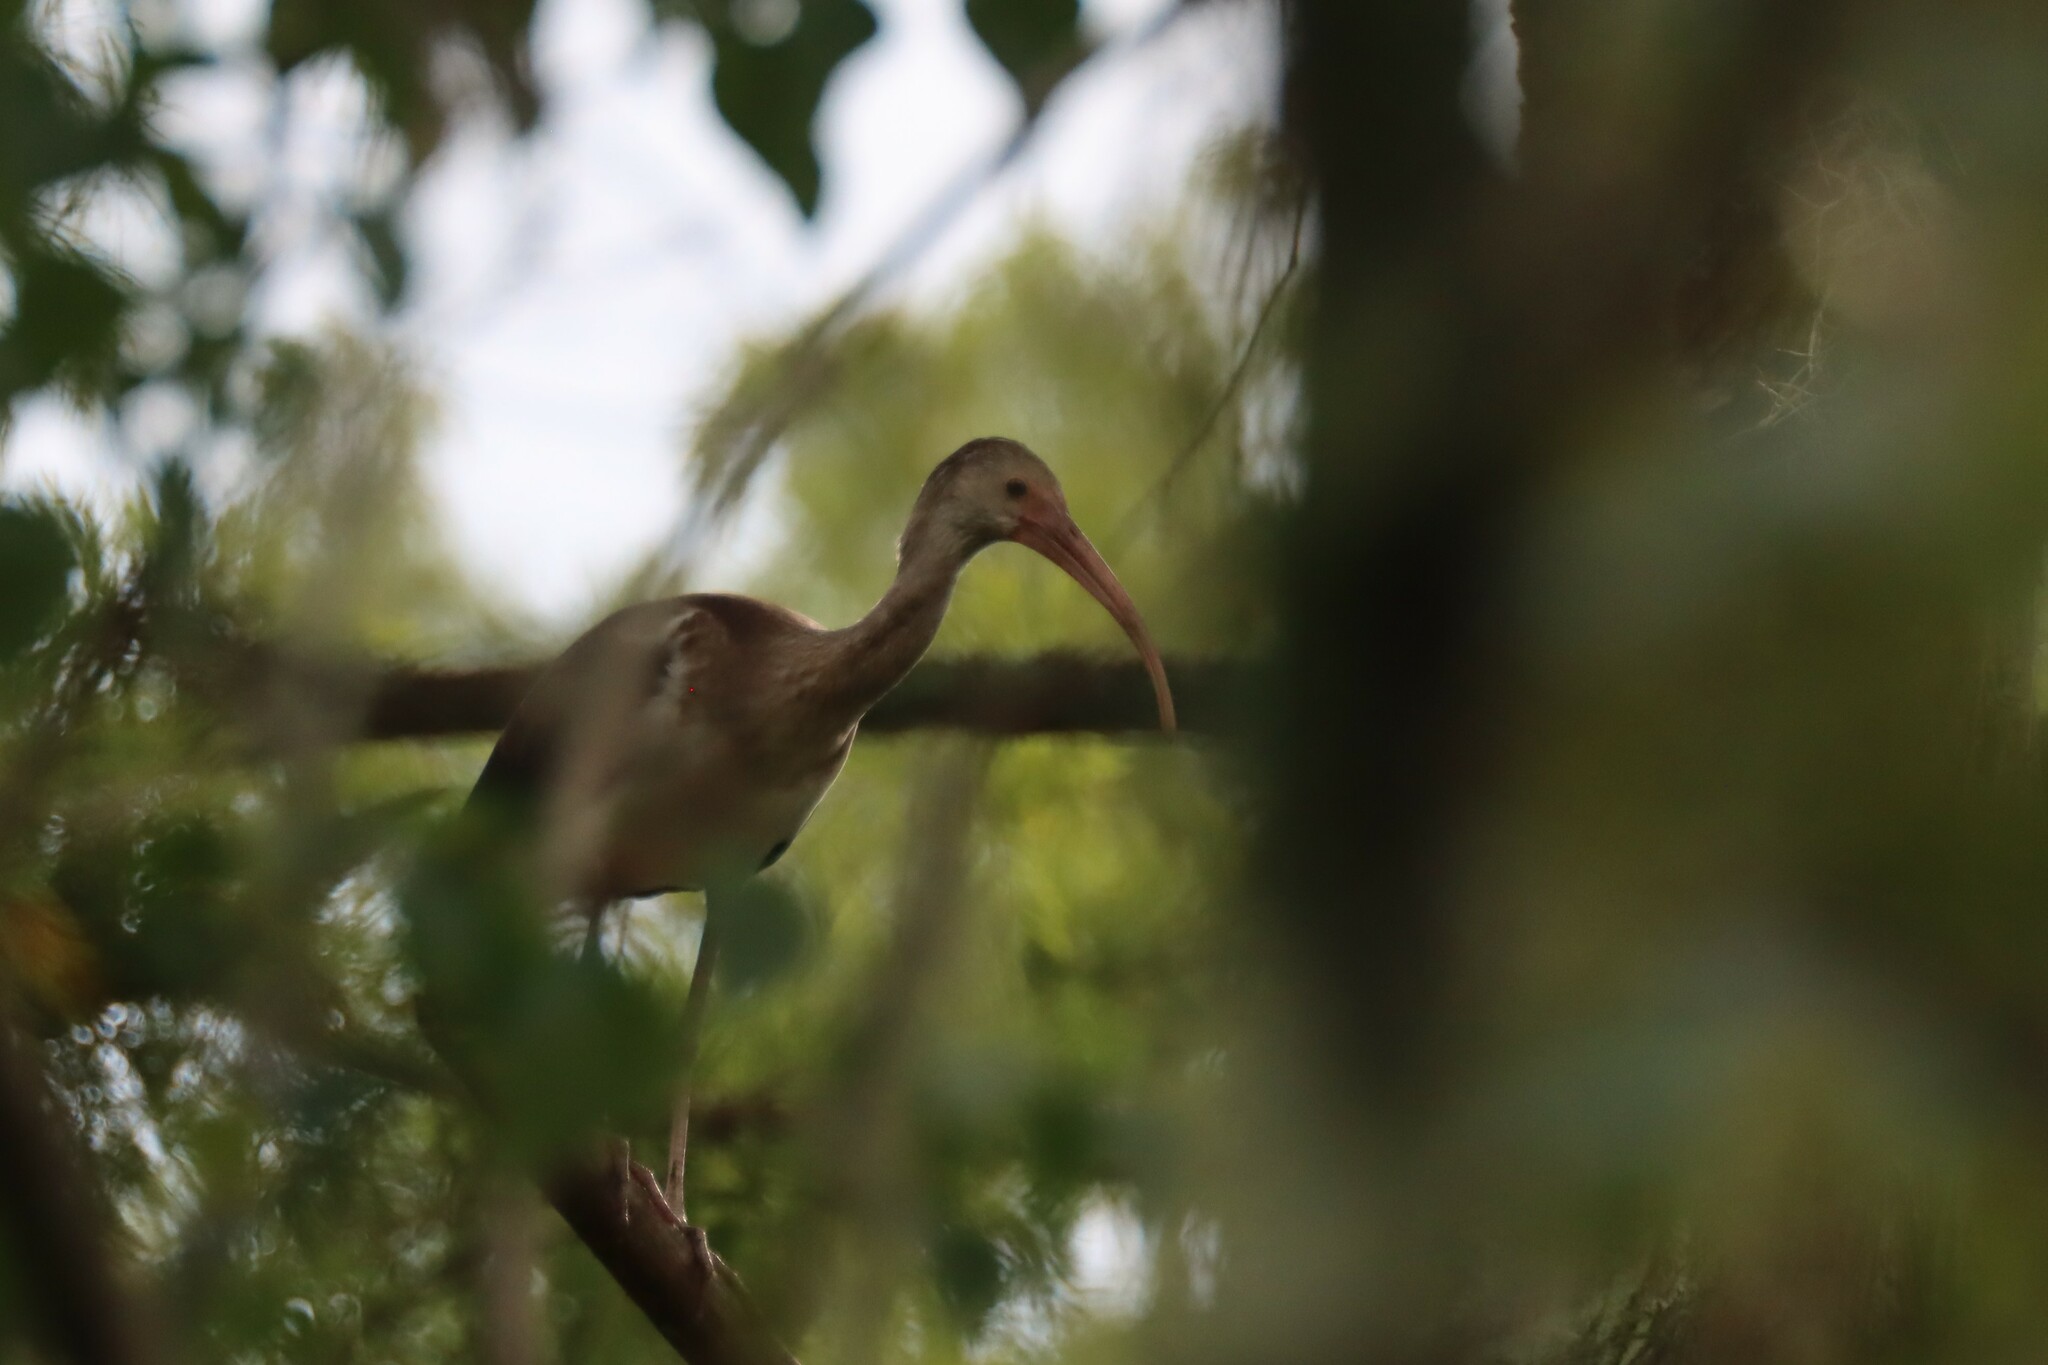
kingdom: Animalia
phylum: Chordata
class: Aves
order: Pelecaniformes
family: Threskiornithidae
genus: Eudocimus
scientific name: Eudocimus albus
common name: White ibis
